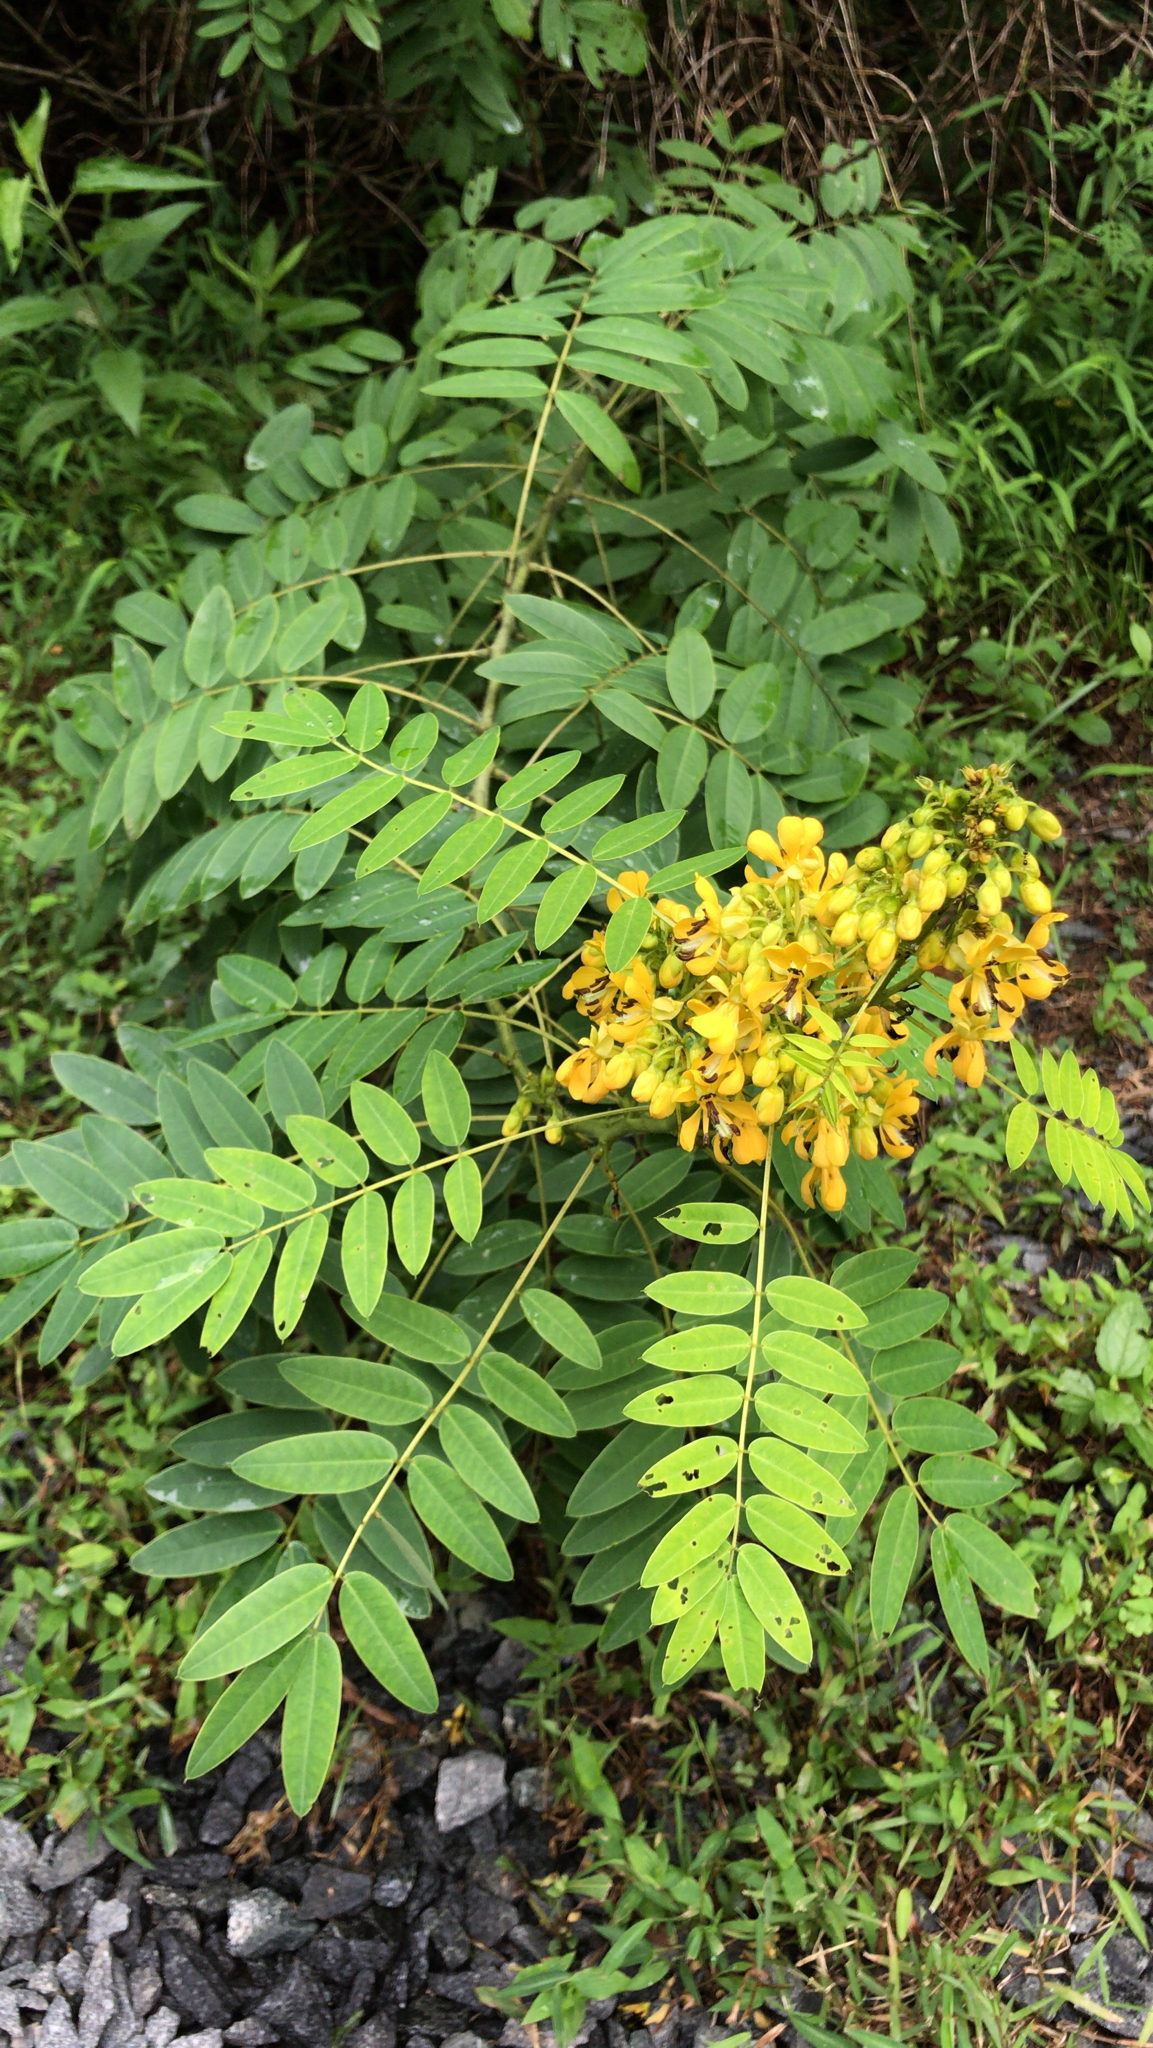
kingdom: Plantae
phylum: Tracheophyta
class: Magnoliopsida
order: Fabales
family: Fabaceae
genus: Senna
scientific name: Senna hebecarpa
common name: Wild senna
